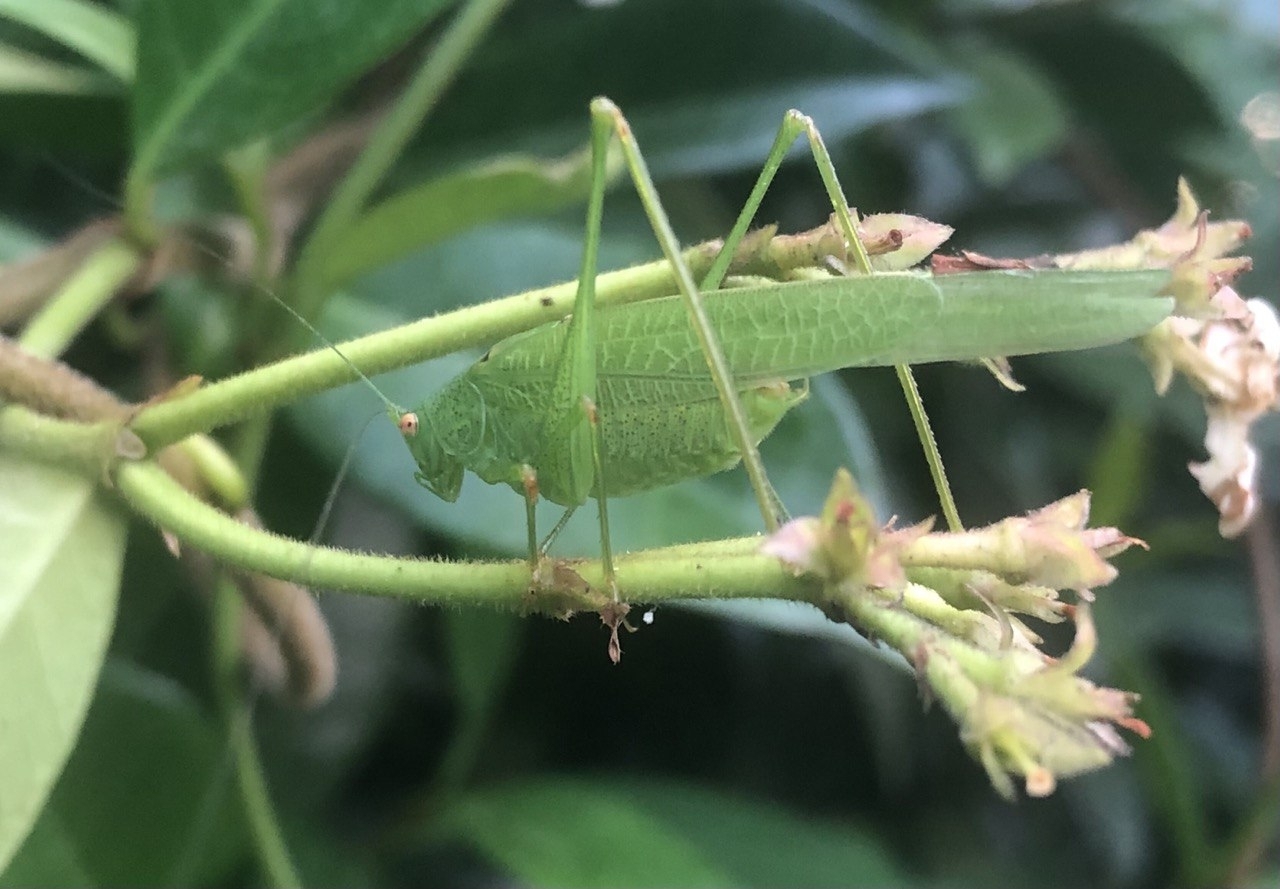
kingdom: Animalia
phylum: Arthropoda
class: Insecta
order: Orthoptera
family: Tettigoniidae
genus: Phaneroptera
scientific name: Phaneroptera nana
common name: Southern sickle bush-cricket
